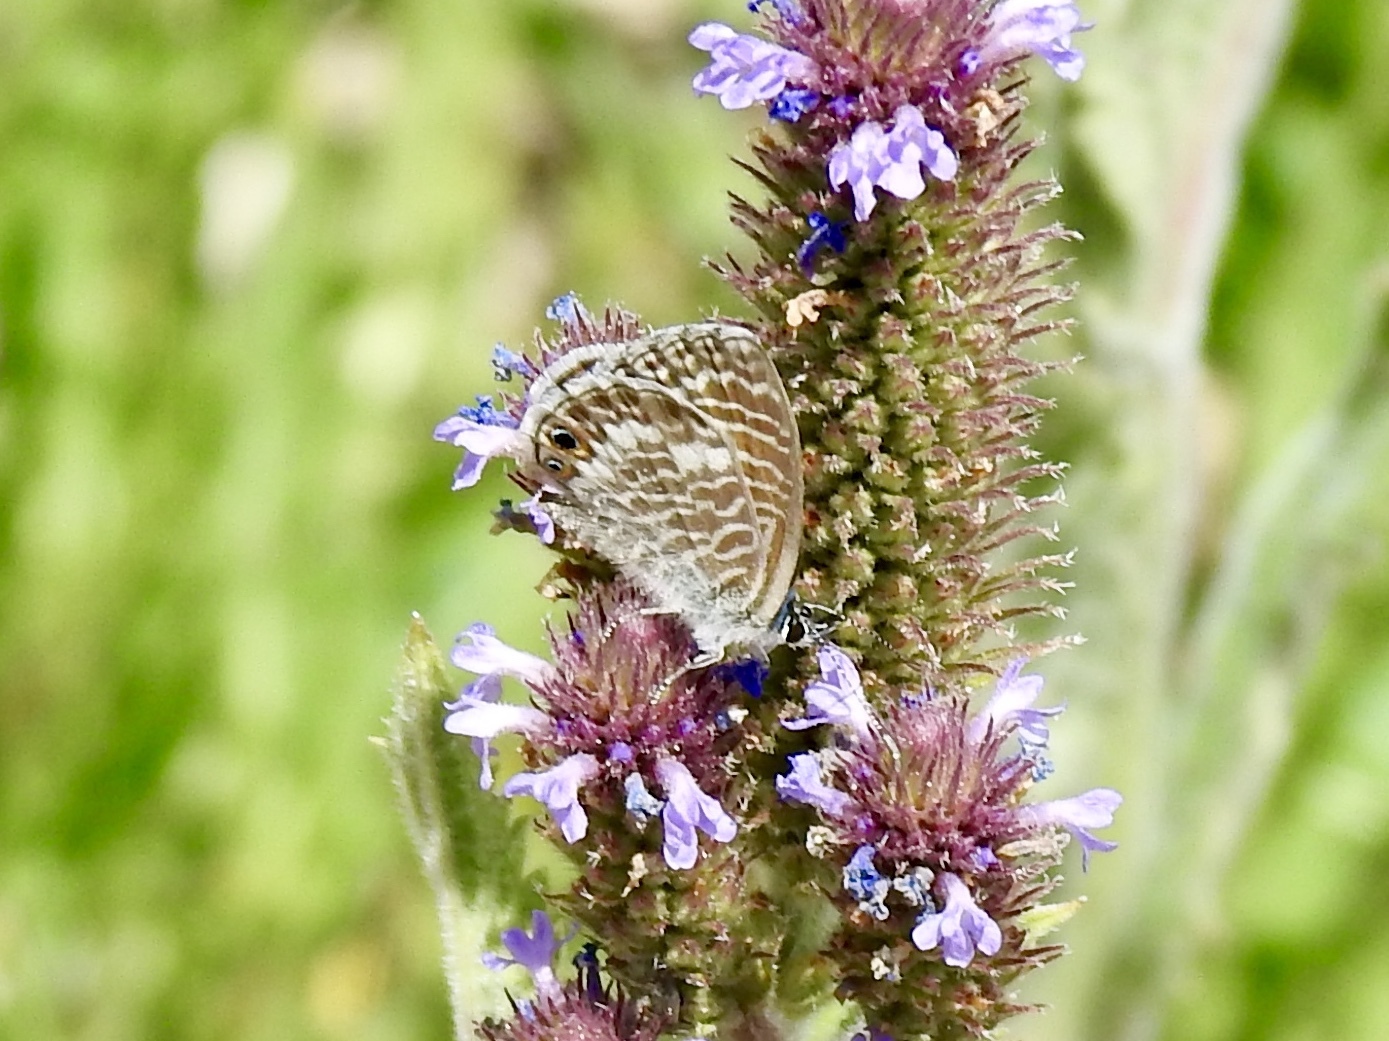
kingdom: Animalia
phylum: Arthropoda
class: Insecta
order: Lepidoptera
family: Lycaenidae
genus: Leptotes
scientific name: Leptotes marina
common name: Marine blue
